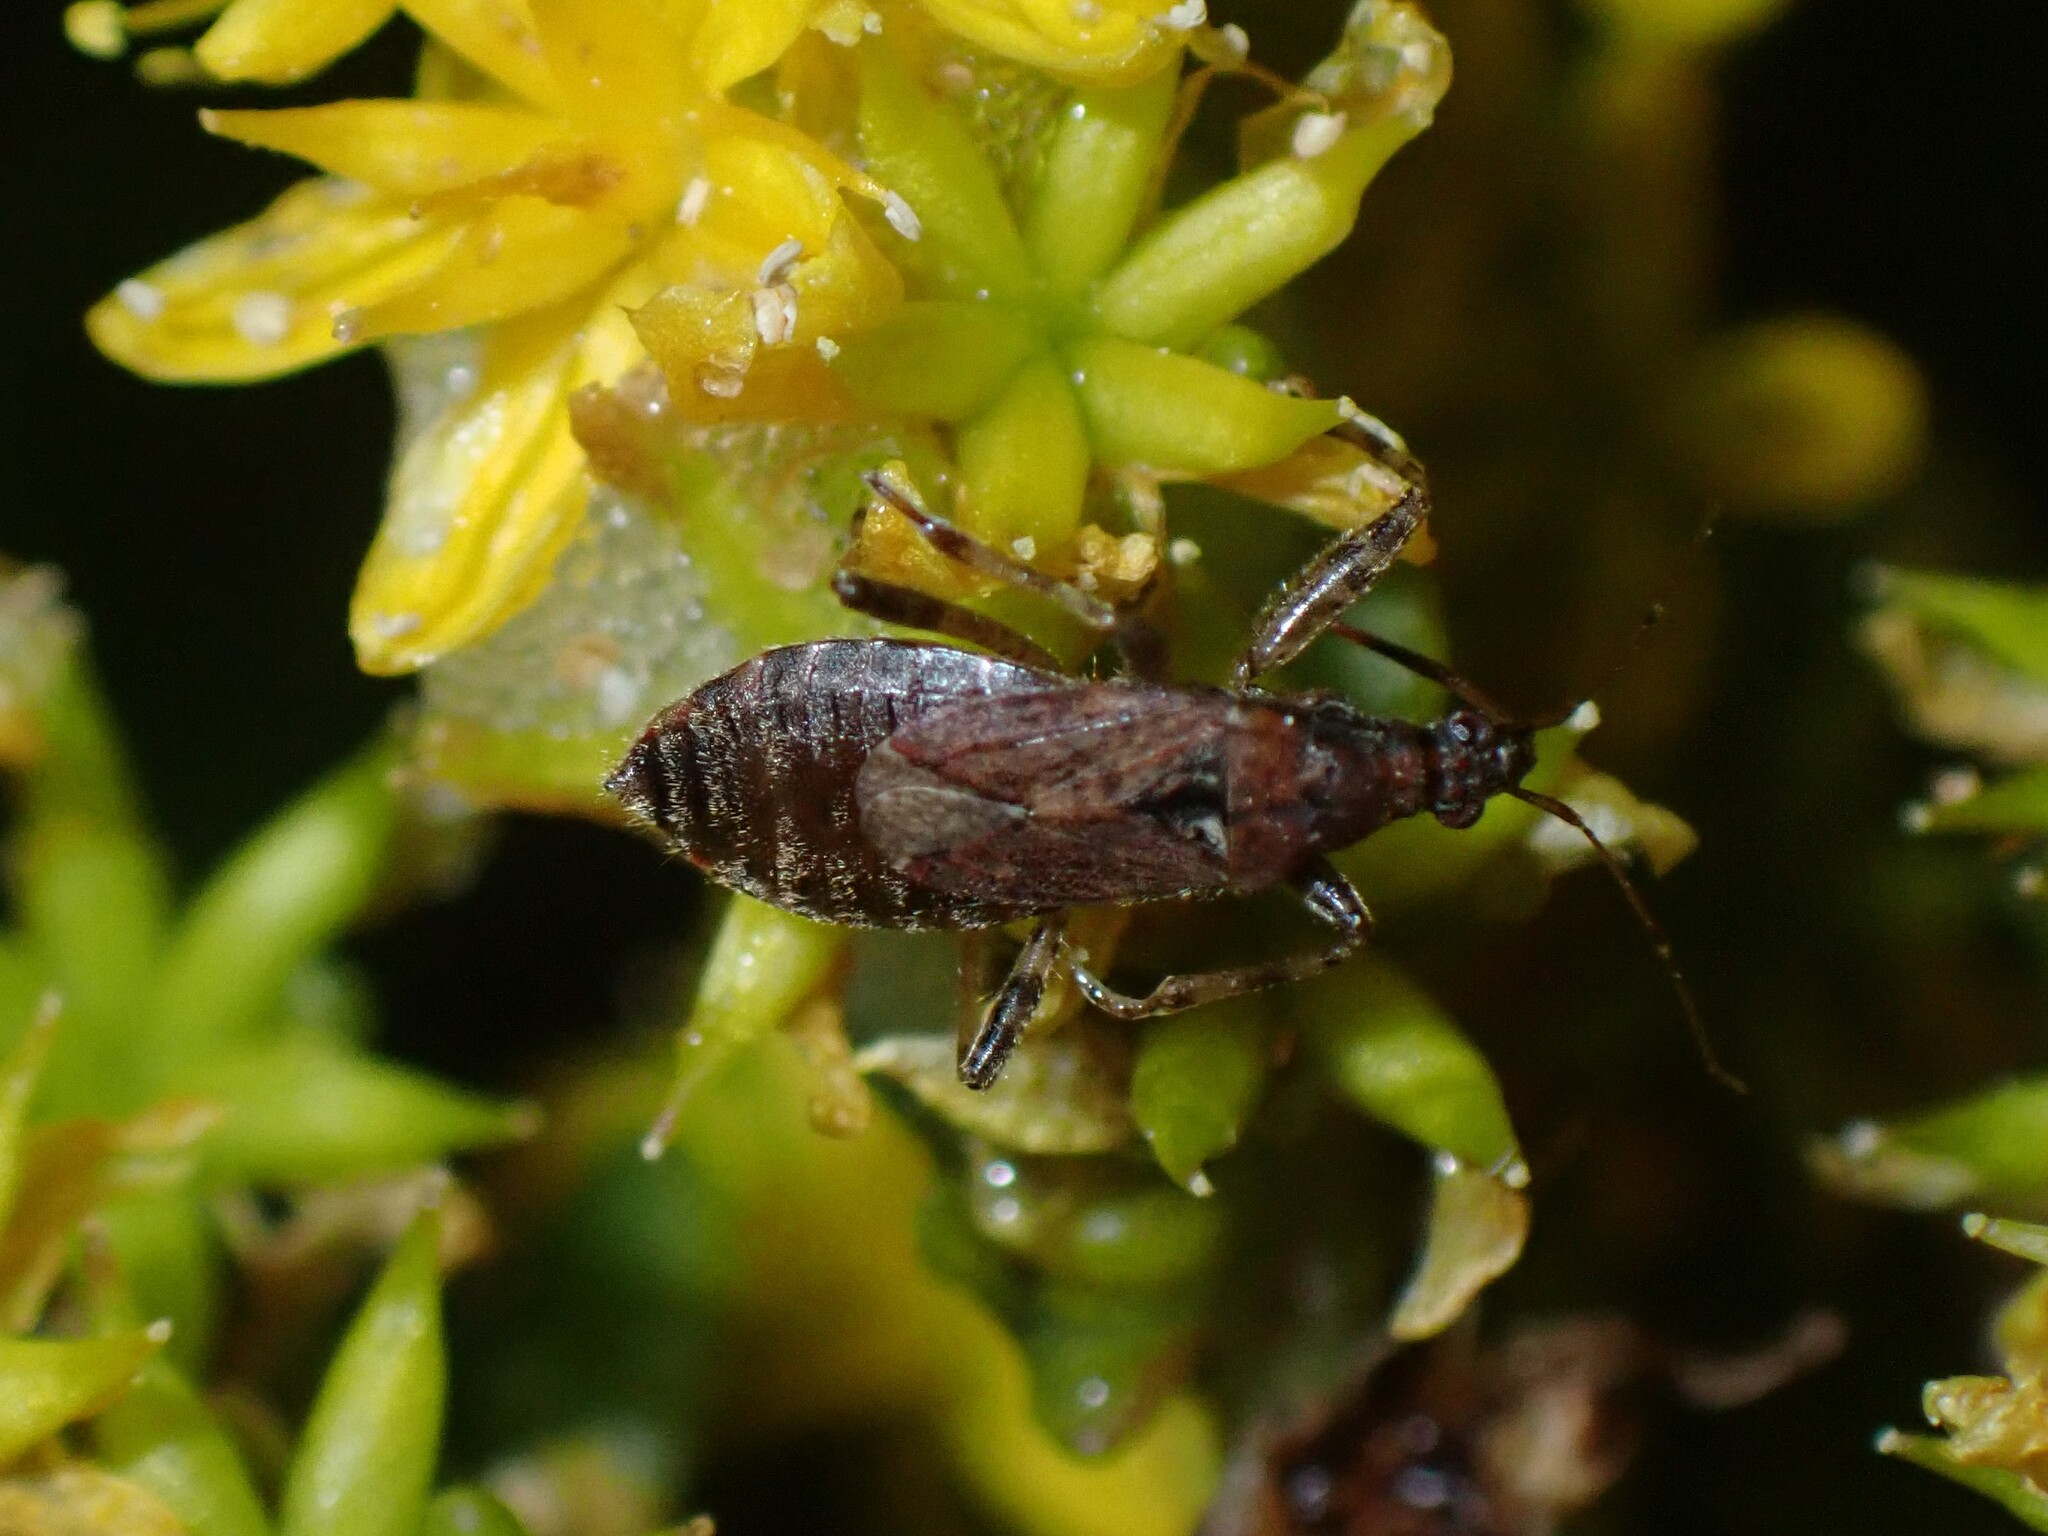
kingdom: Animalia
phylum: Arthropoda
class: Insecta
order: Hemiptera
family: Nabidae
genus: Himacerus
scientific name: Himacerus mirmicoides
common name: Ant damsel bug
